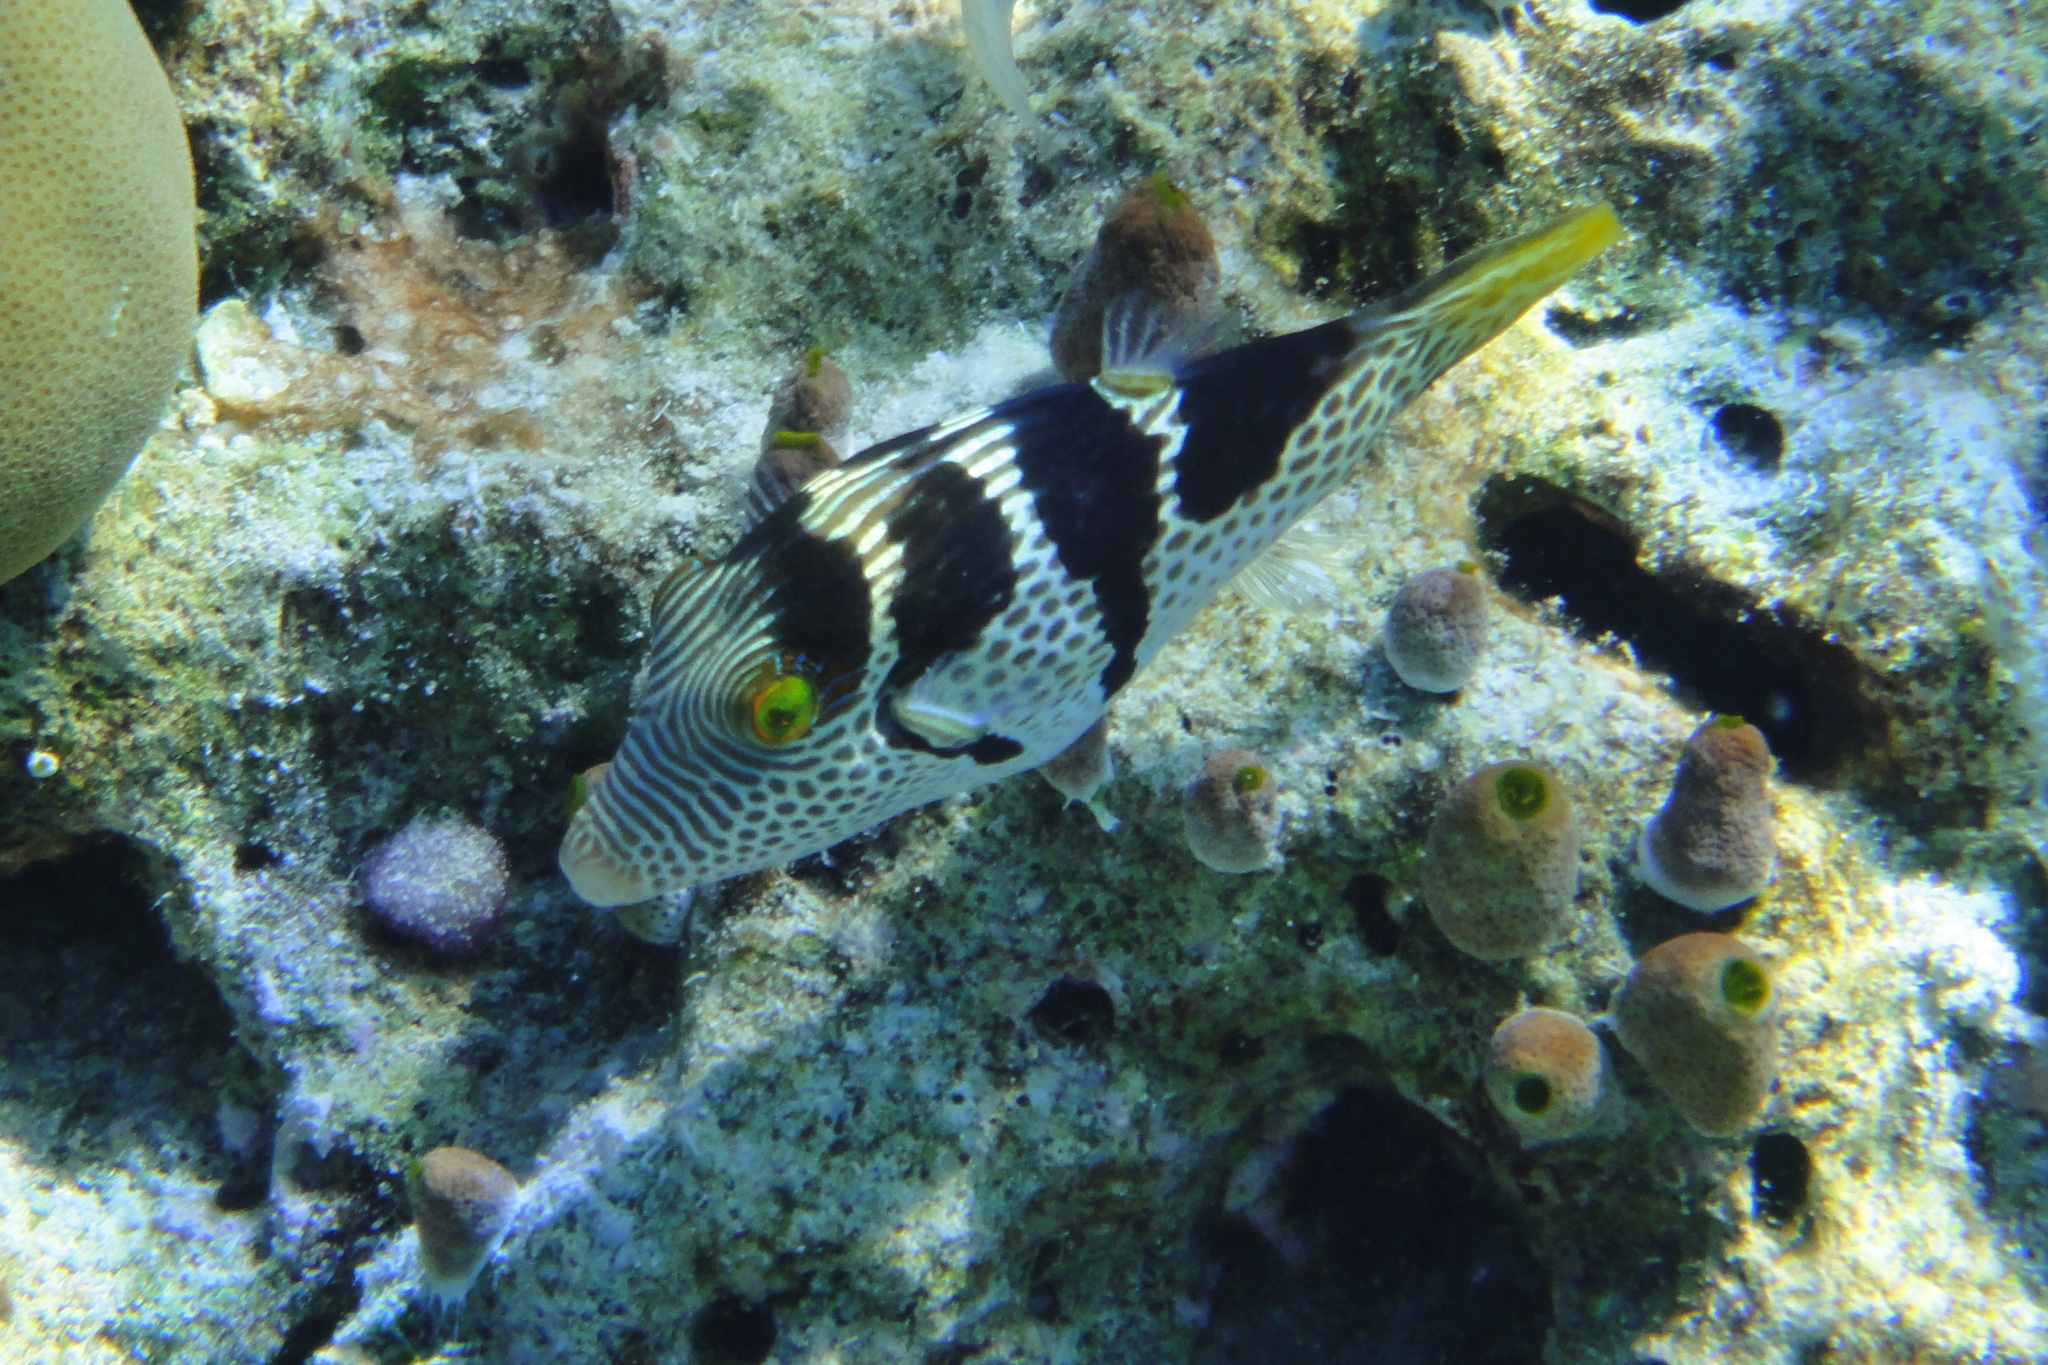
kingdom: Animalia
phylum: Chordata
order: Tetraodontiformes
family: Tetraodontidae
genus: Canthigaster
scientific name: Canthigaster valentini
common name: Banded toby
